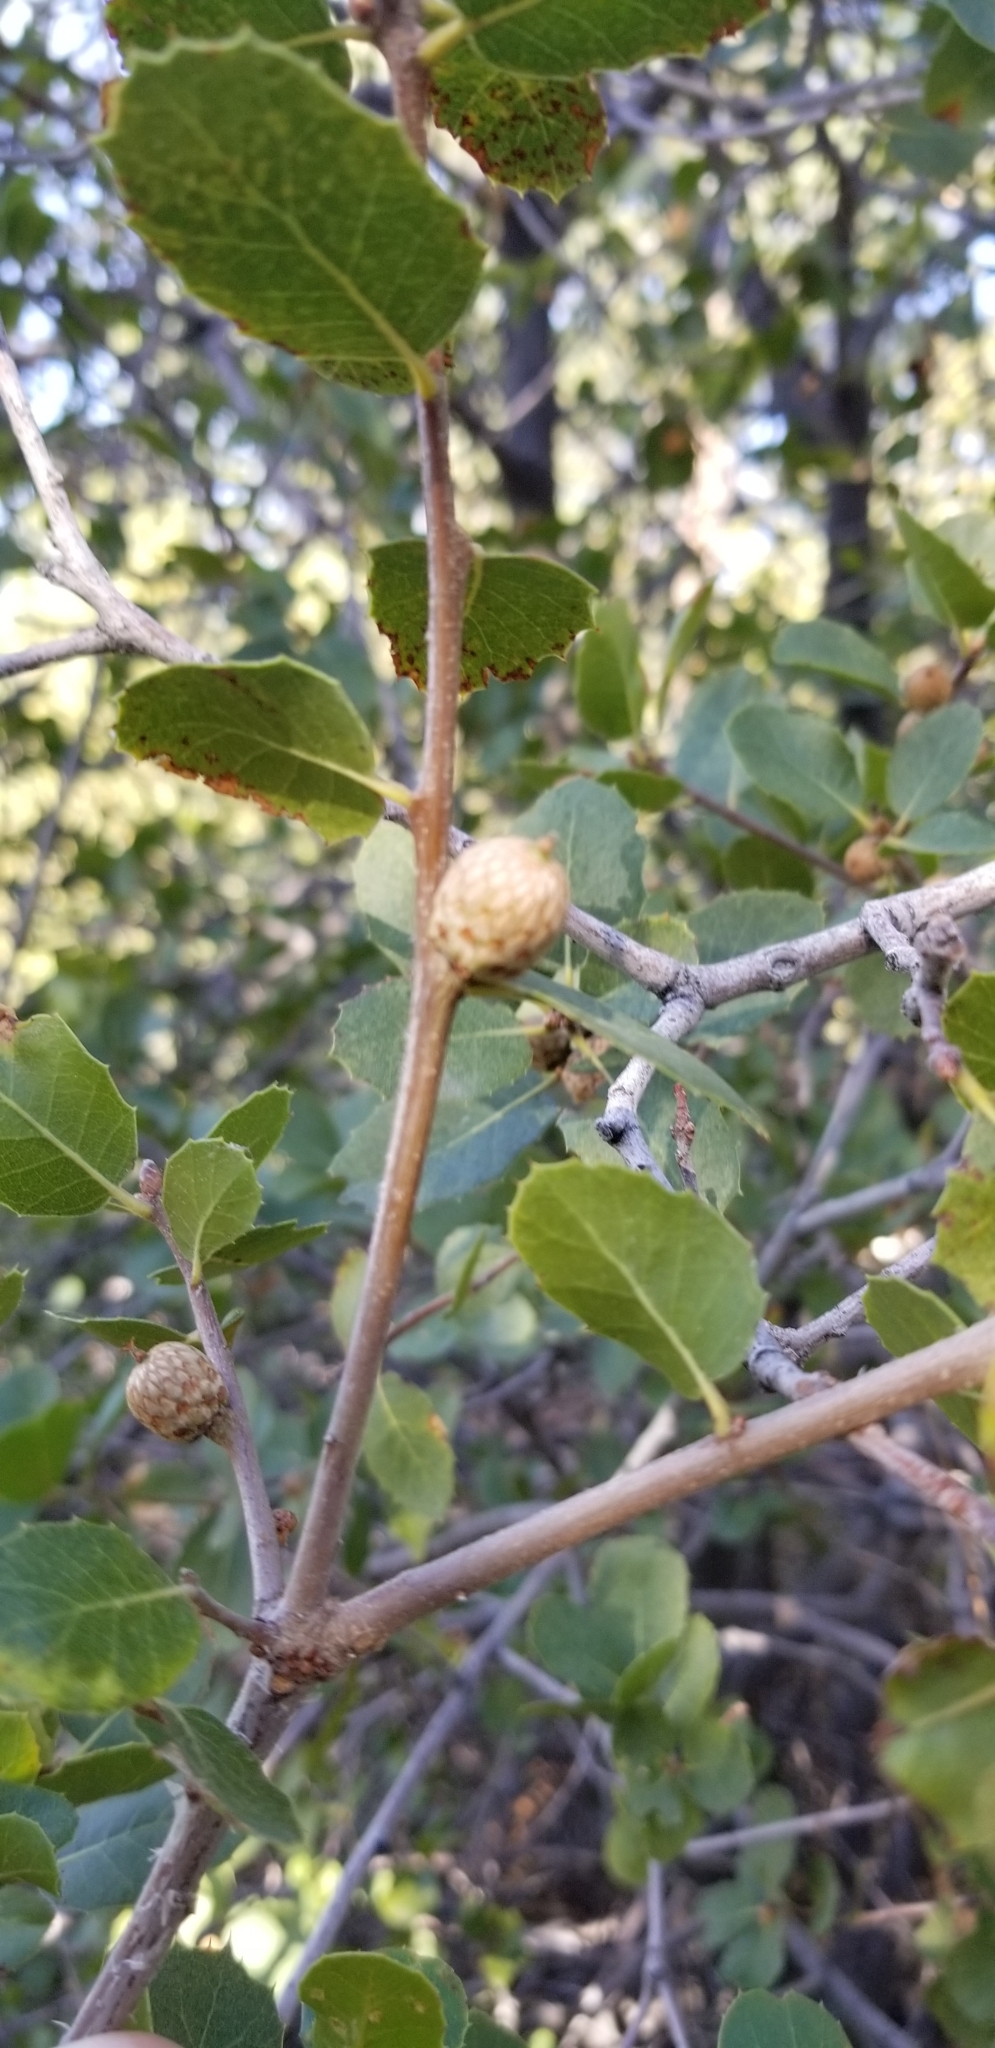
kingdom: Plantae
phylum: Tracheophyta
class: Magnoliopsida
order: Fagales
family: Fagaceae
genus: Quercus
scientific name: Quercus wislizeni
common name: Interior live oak
